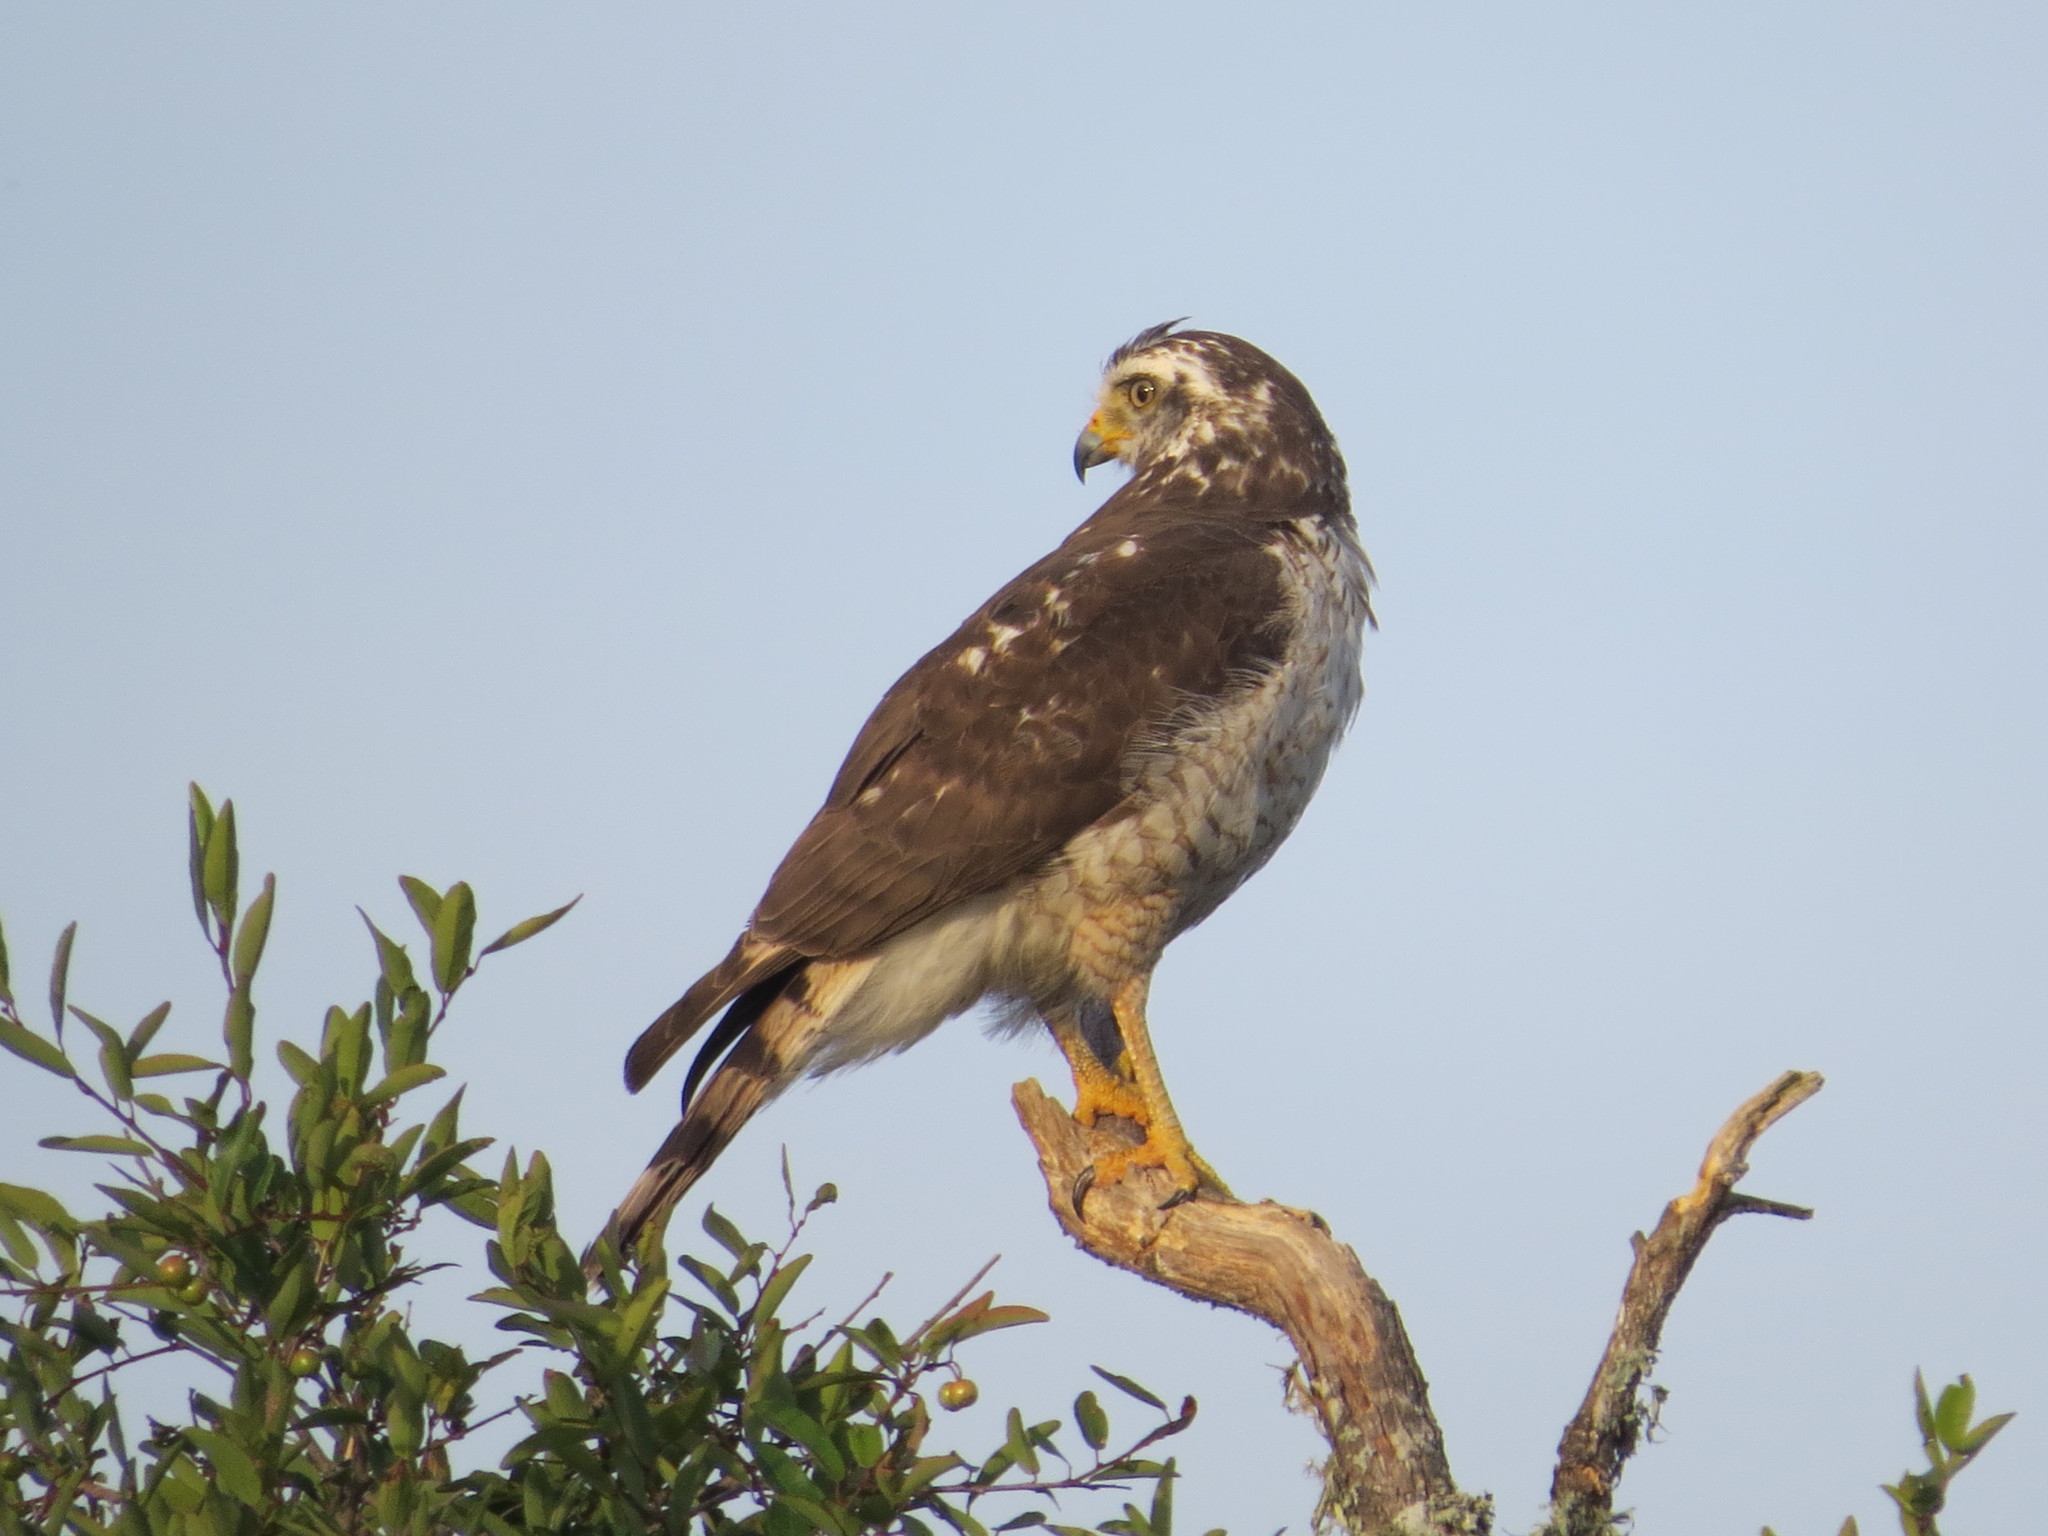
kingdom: Animalia
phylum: Chordata
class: Aves
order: Accipitriformes
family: Accipitridae
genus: Rupornis
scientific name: Rupornis magnirostris
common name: Roadside hawk
